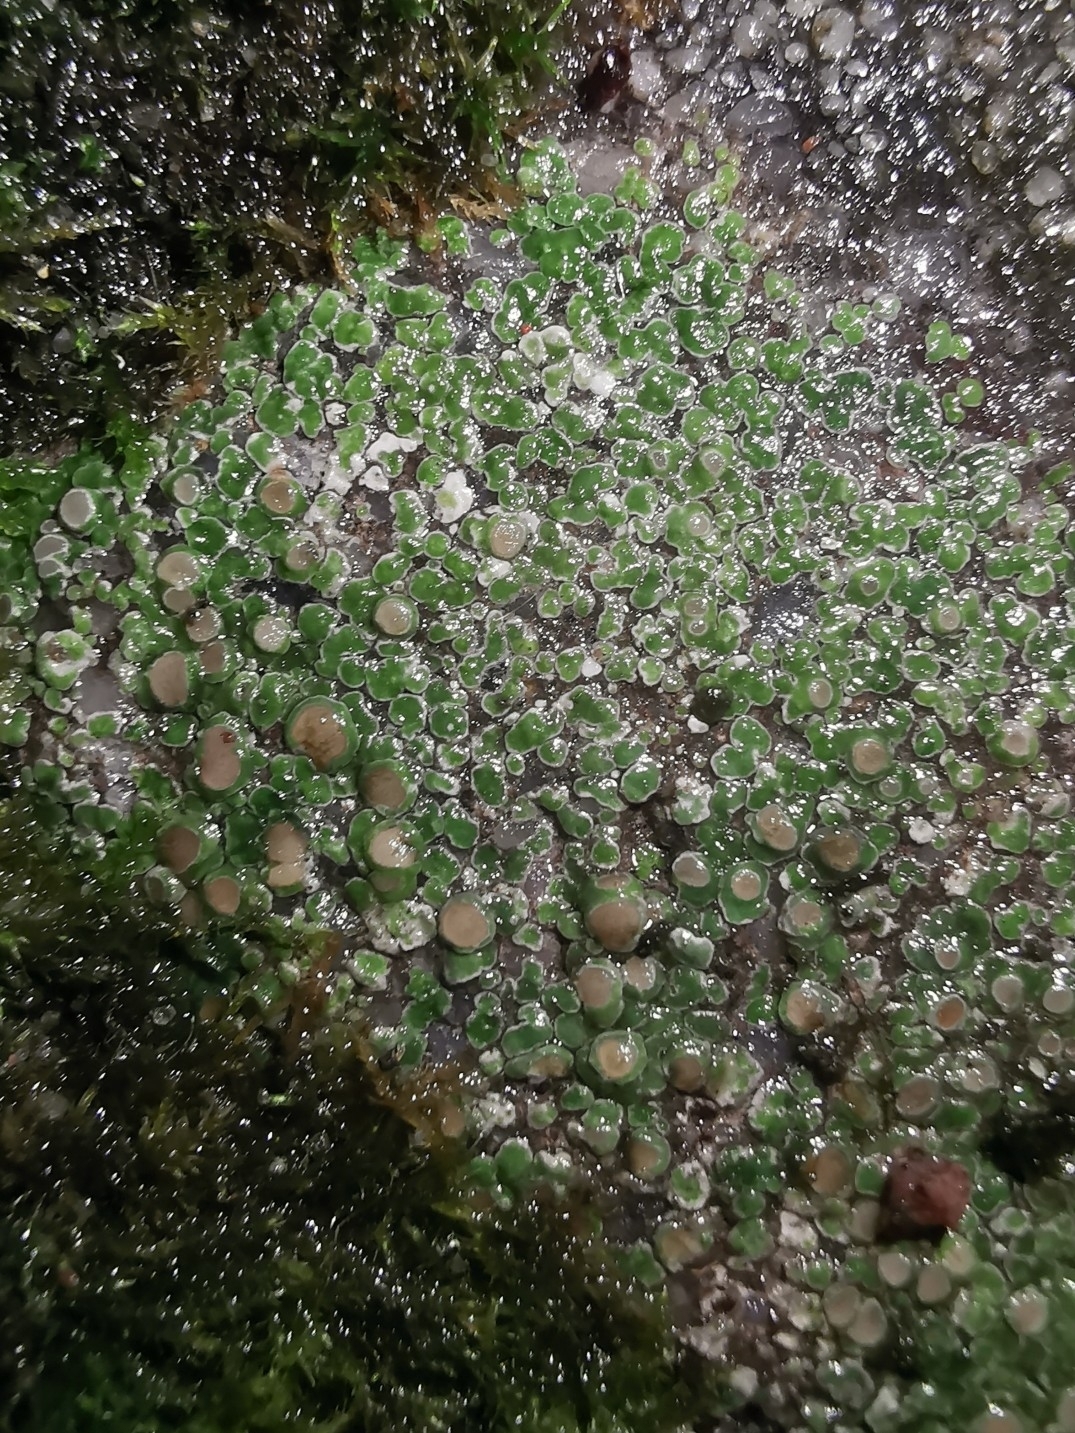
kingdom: Fungi
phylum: Ascomycota
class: Lecanoromycetes
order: Pertusariales
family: Megasporaceae
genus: Circinaria
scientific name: Circinaria contorta
